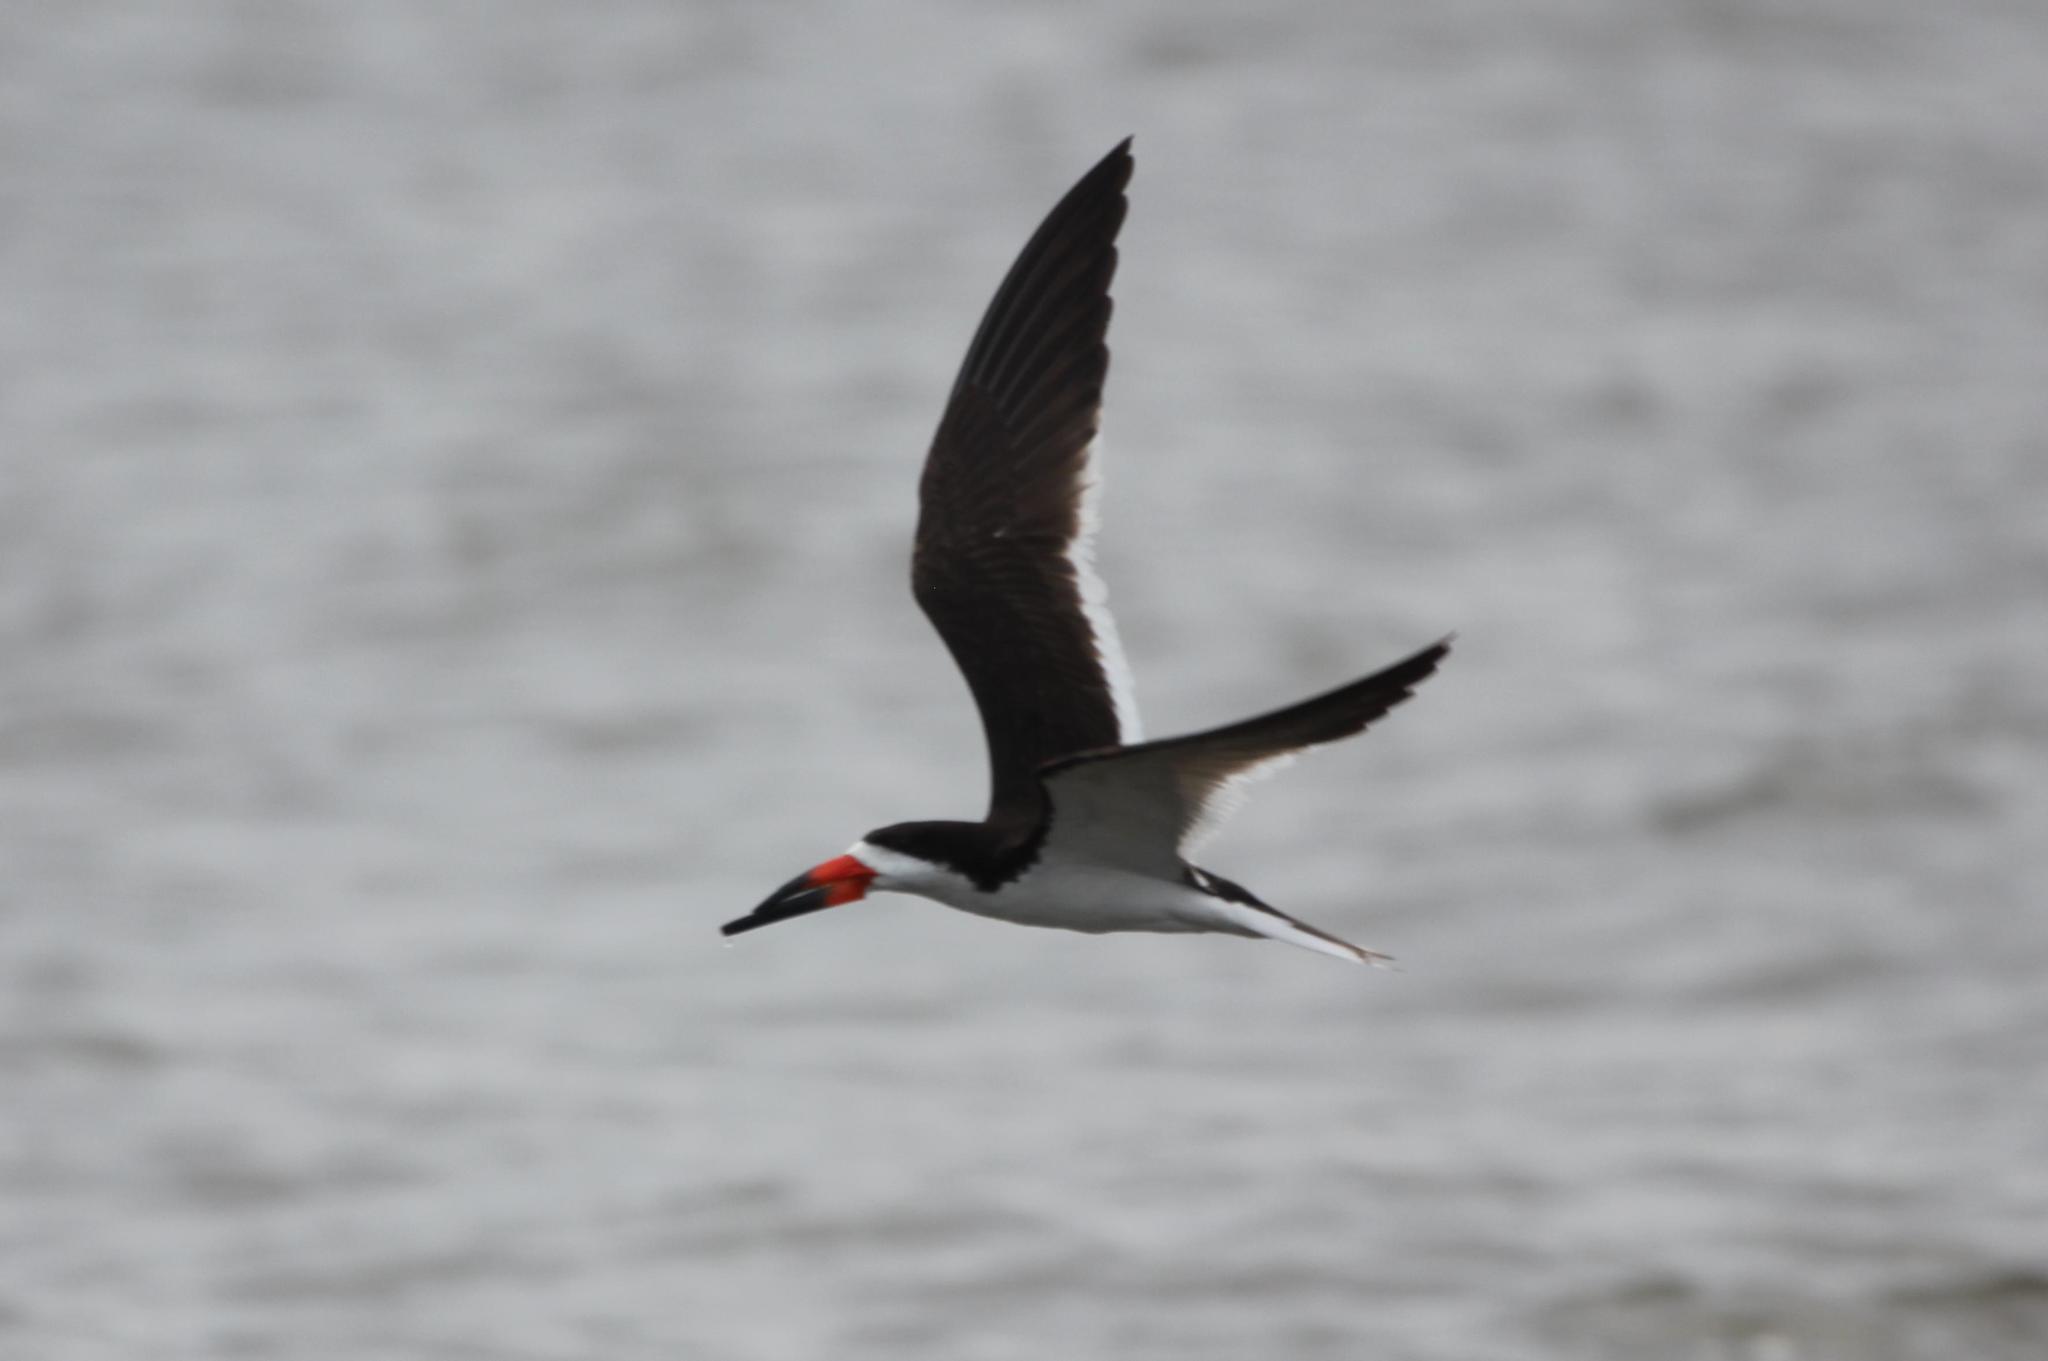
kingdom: Animalia
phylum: Chordata
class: Aves
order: Charadriiformes
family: Laridae
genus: Rynchops
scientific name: Rynchops niger
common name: Black skimmer
